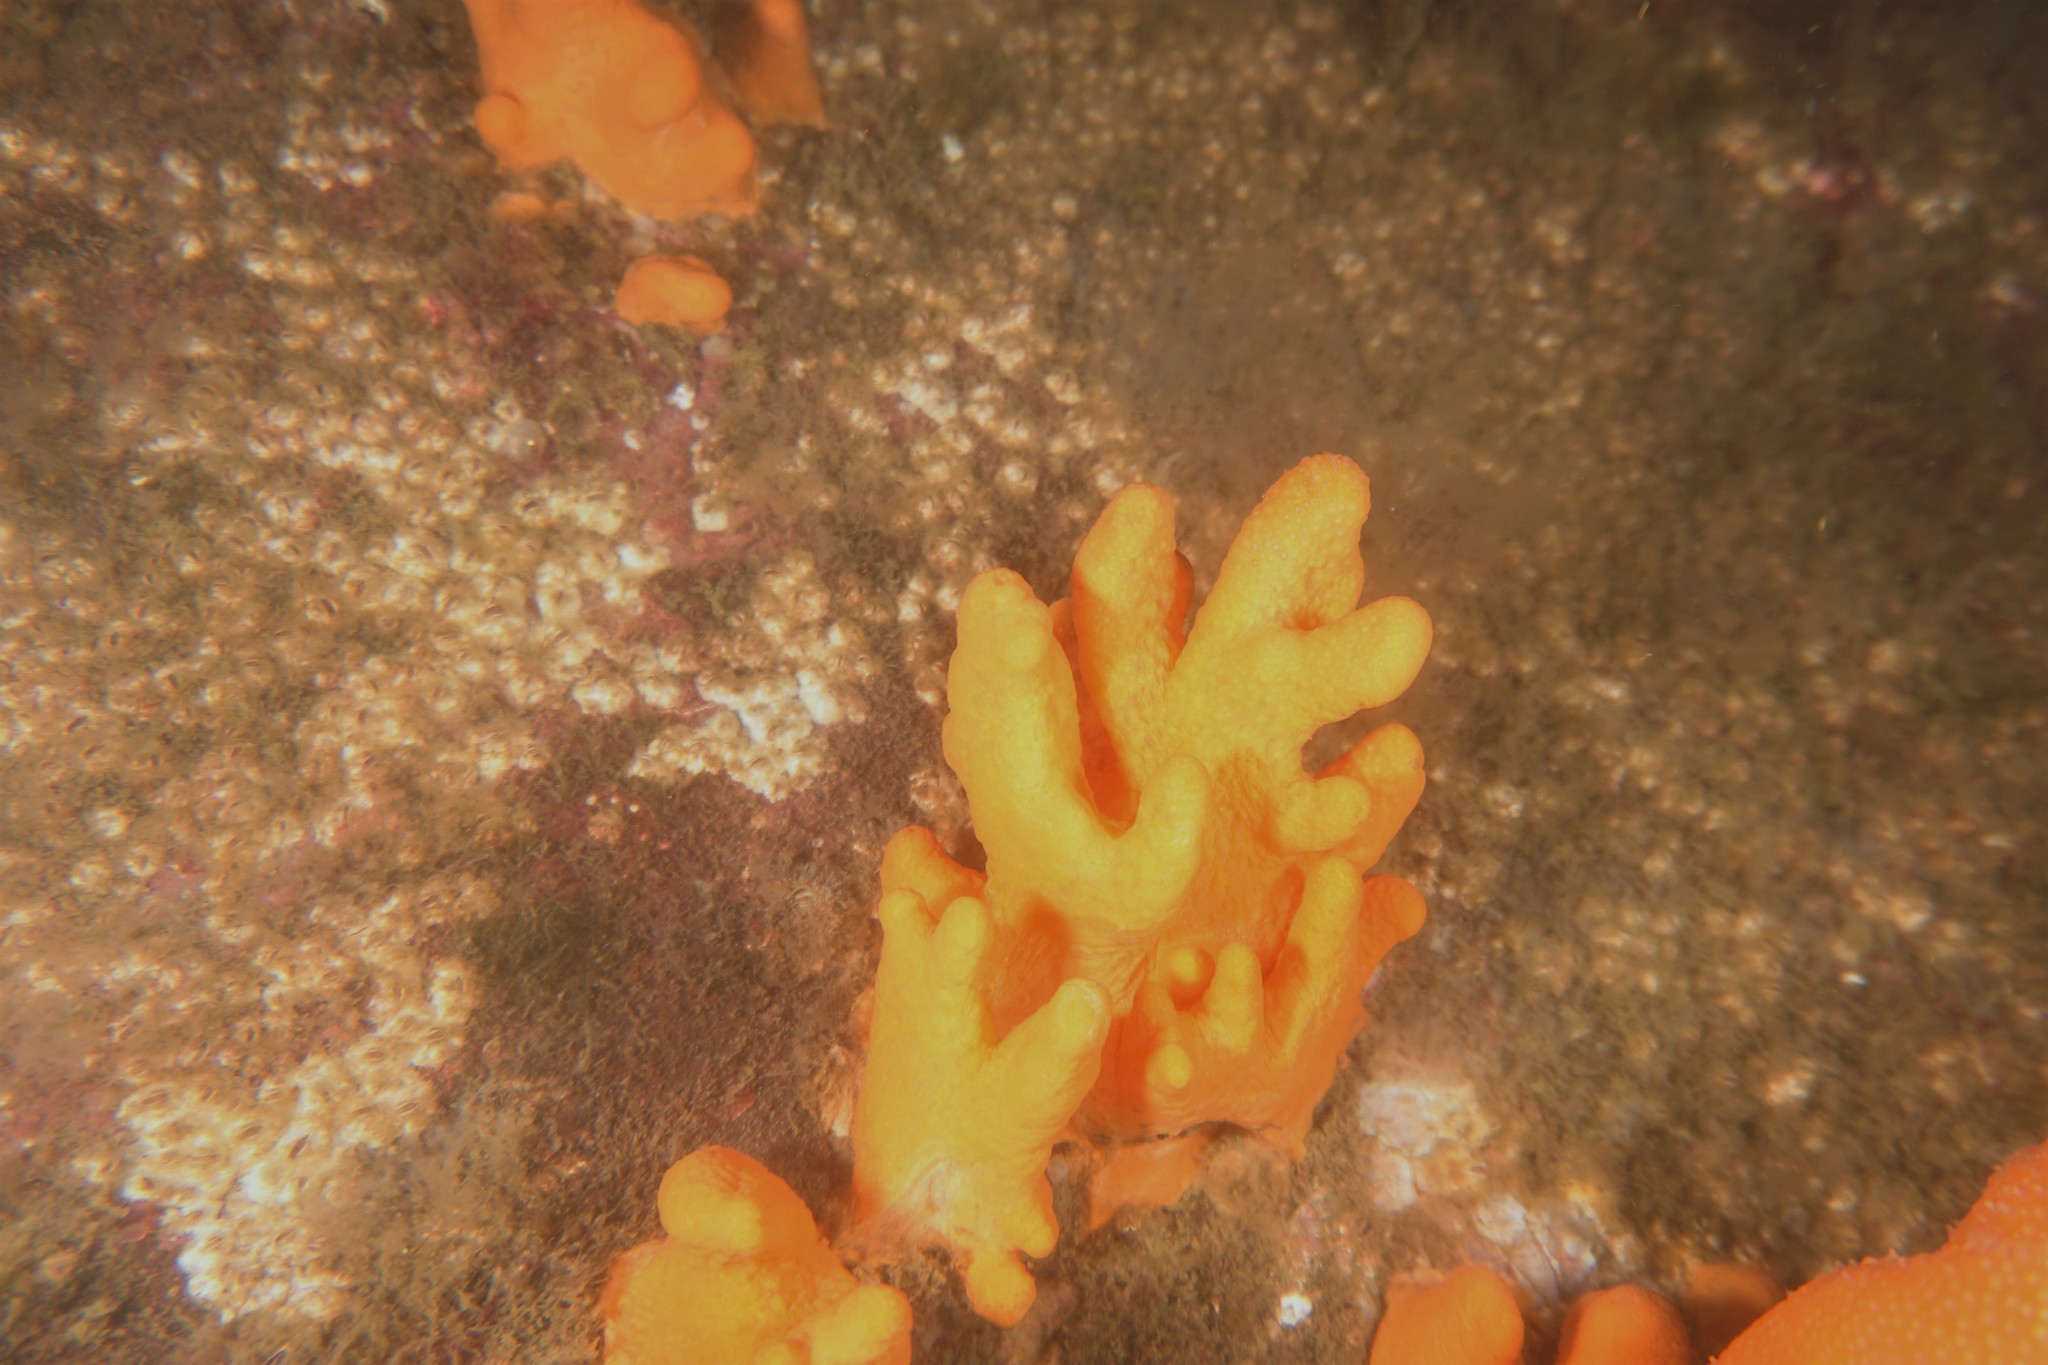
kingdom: Animalia
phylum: Cnidaria
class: Anthozoa
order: Malacalcyonacea
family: Alcyoniidae
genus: Alcyonium
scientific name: Alcyonium digitatum
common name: Dead man's fingers
